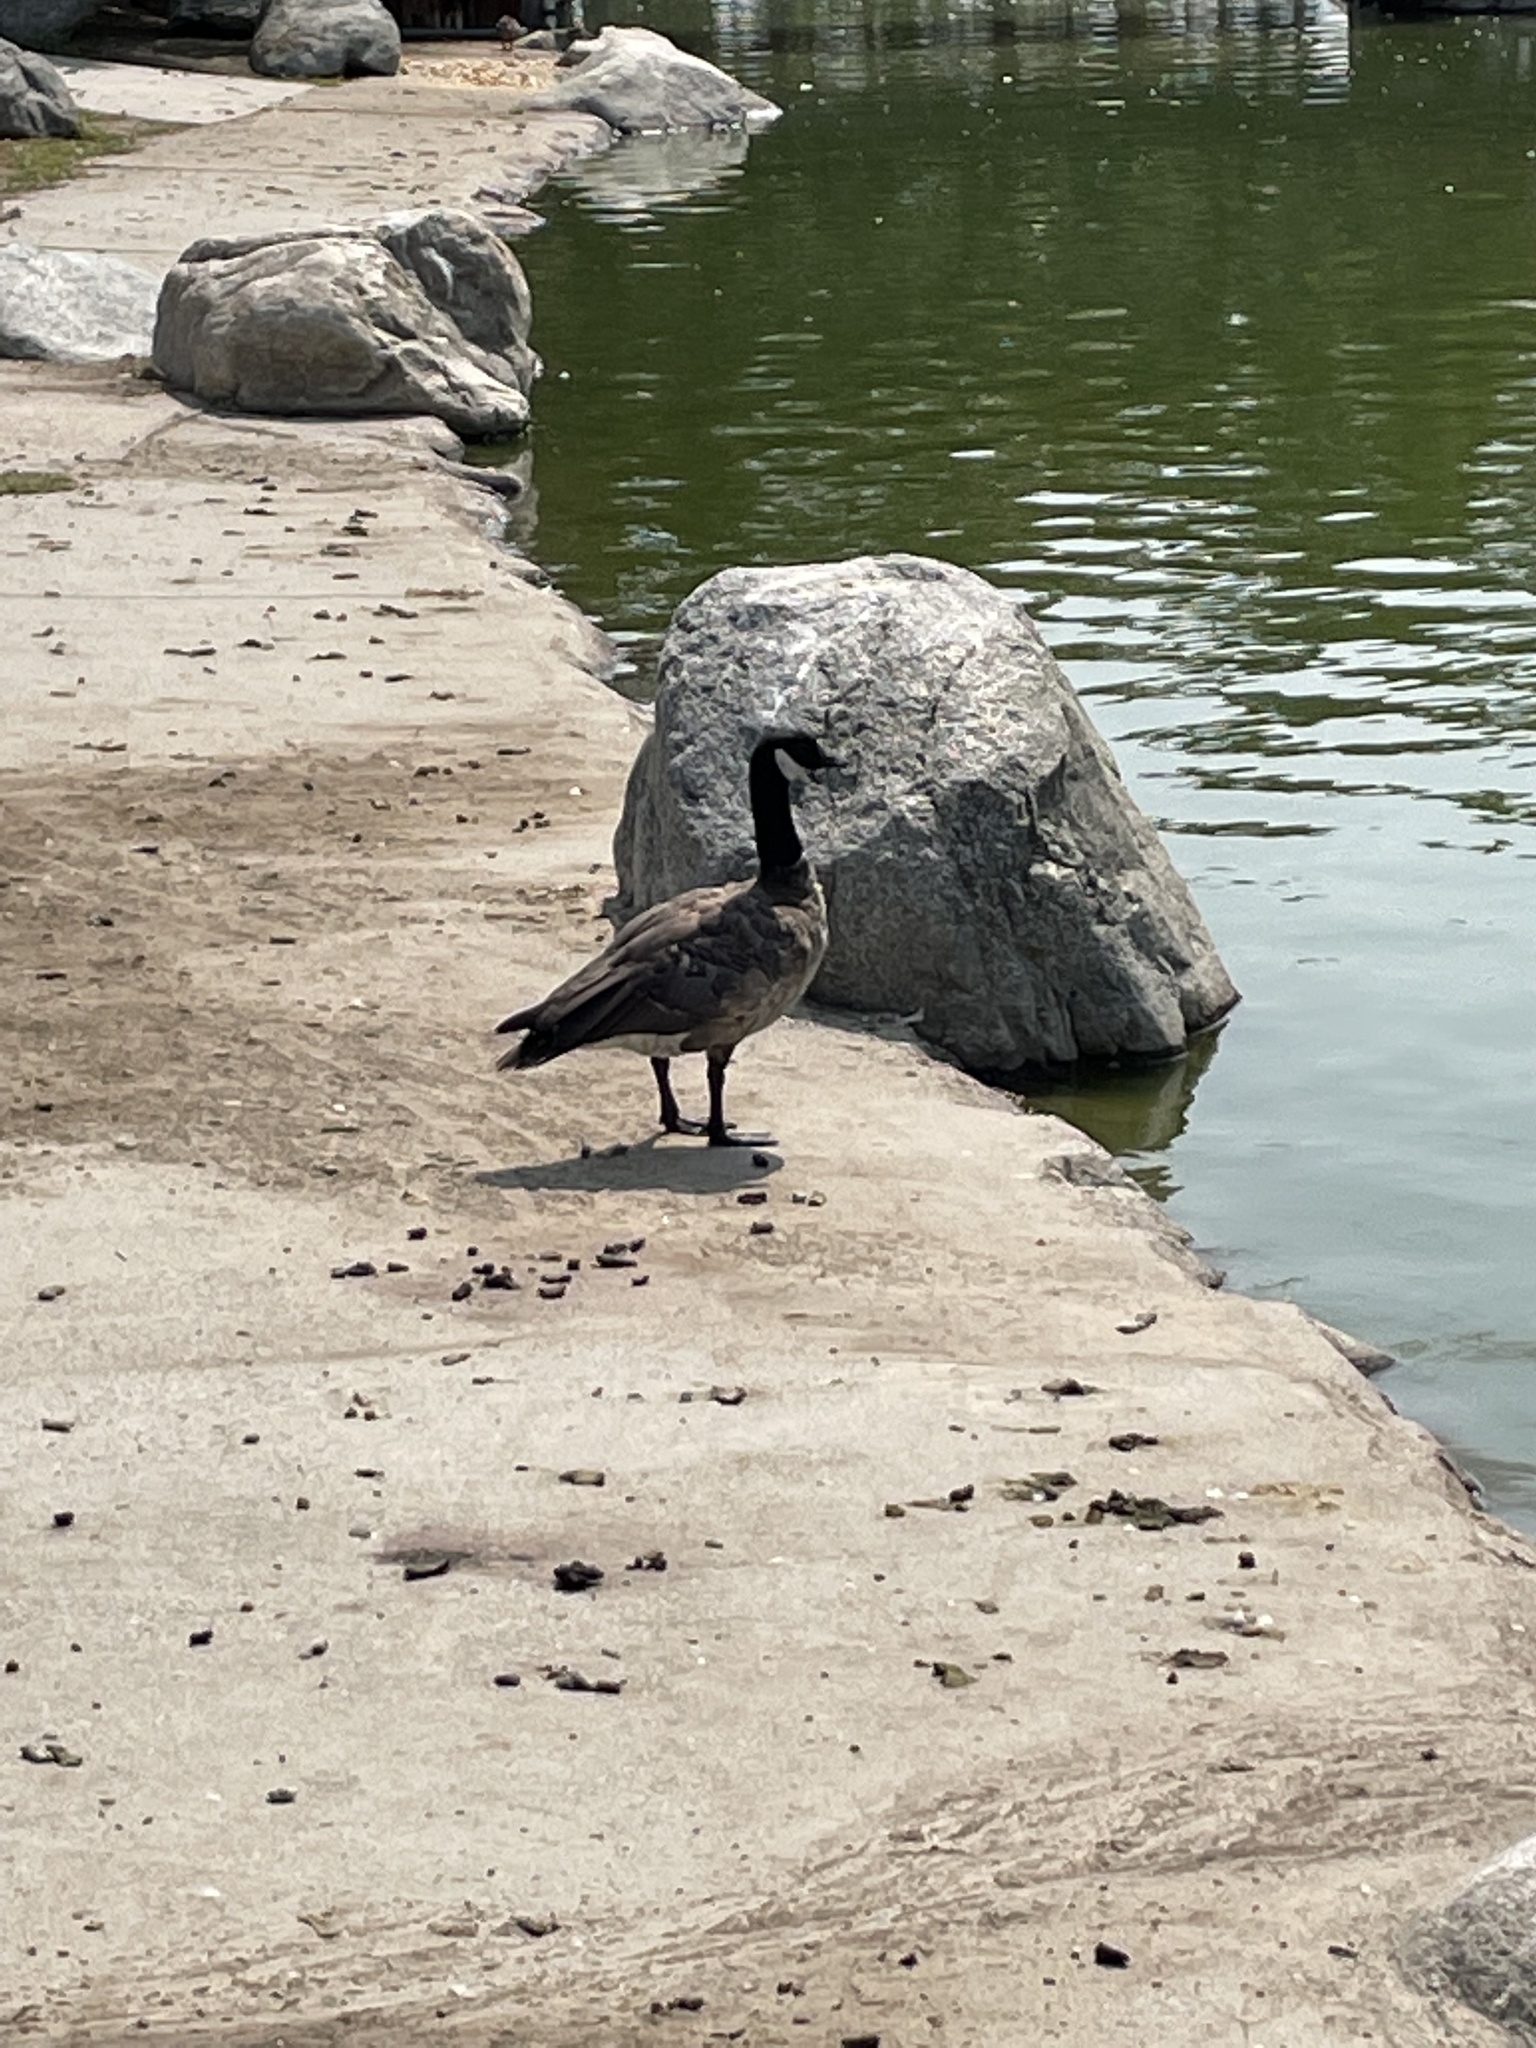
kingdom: Animalia
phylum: Chordata
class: Aves
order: Anseriformes
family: Anatidae
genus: Branta
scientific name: Branta hutchinsii
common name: Cackling goose
